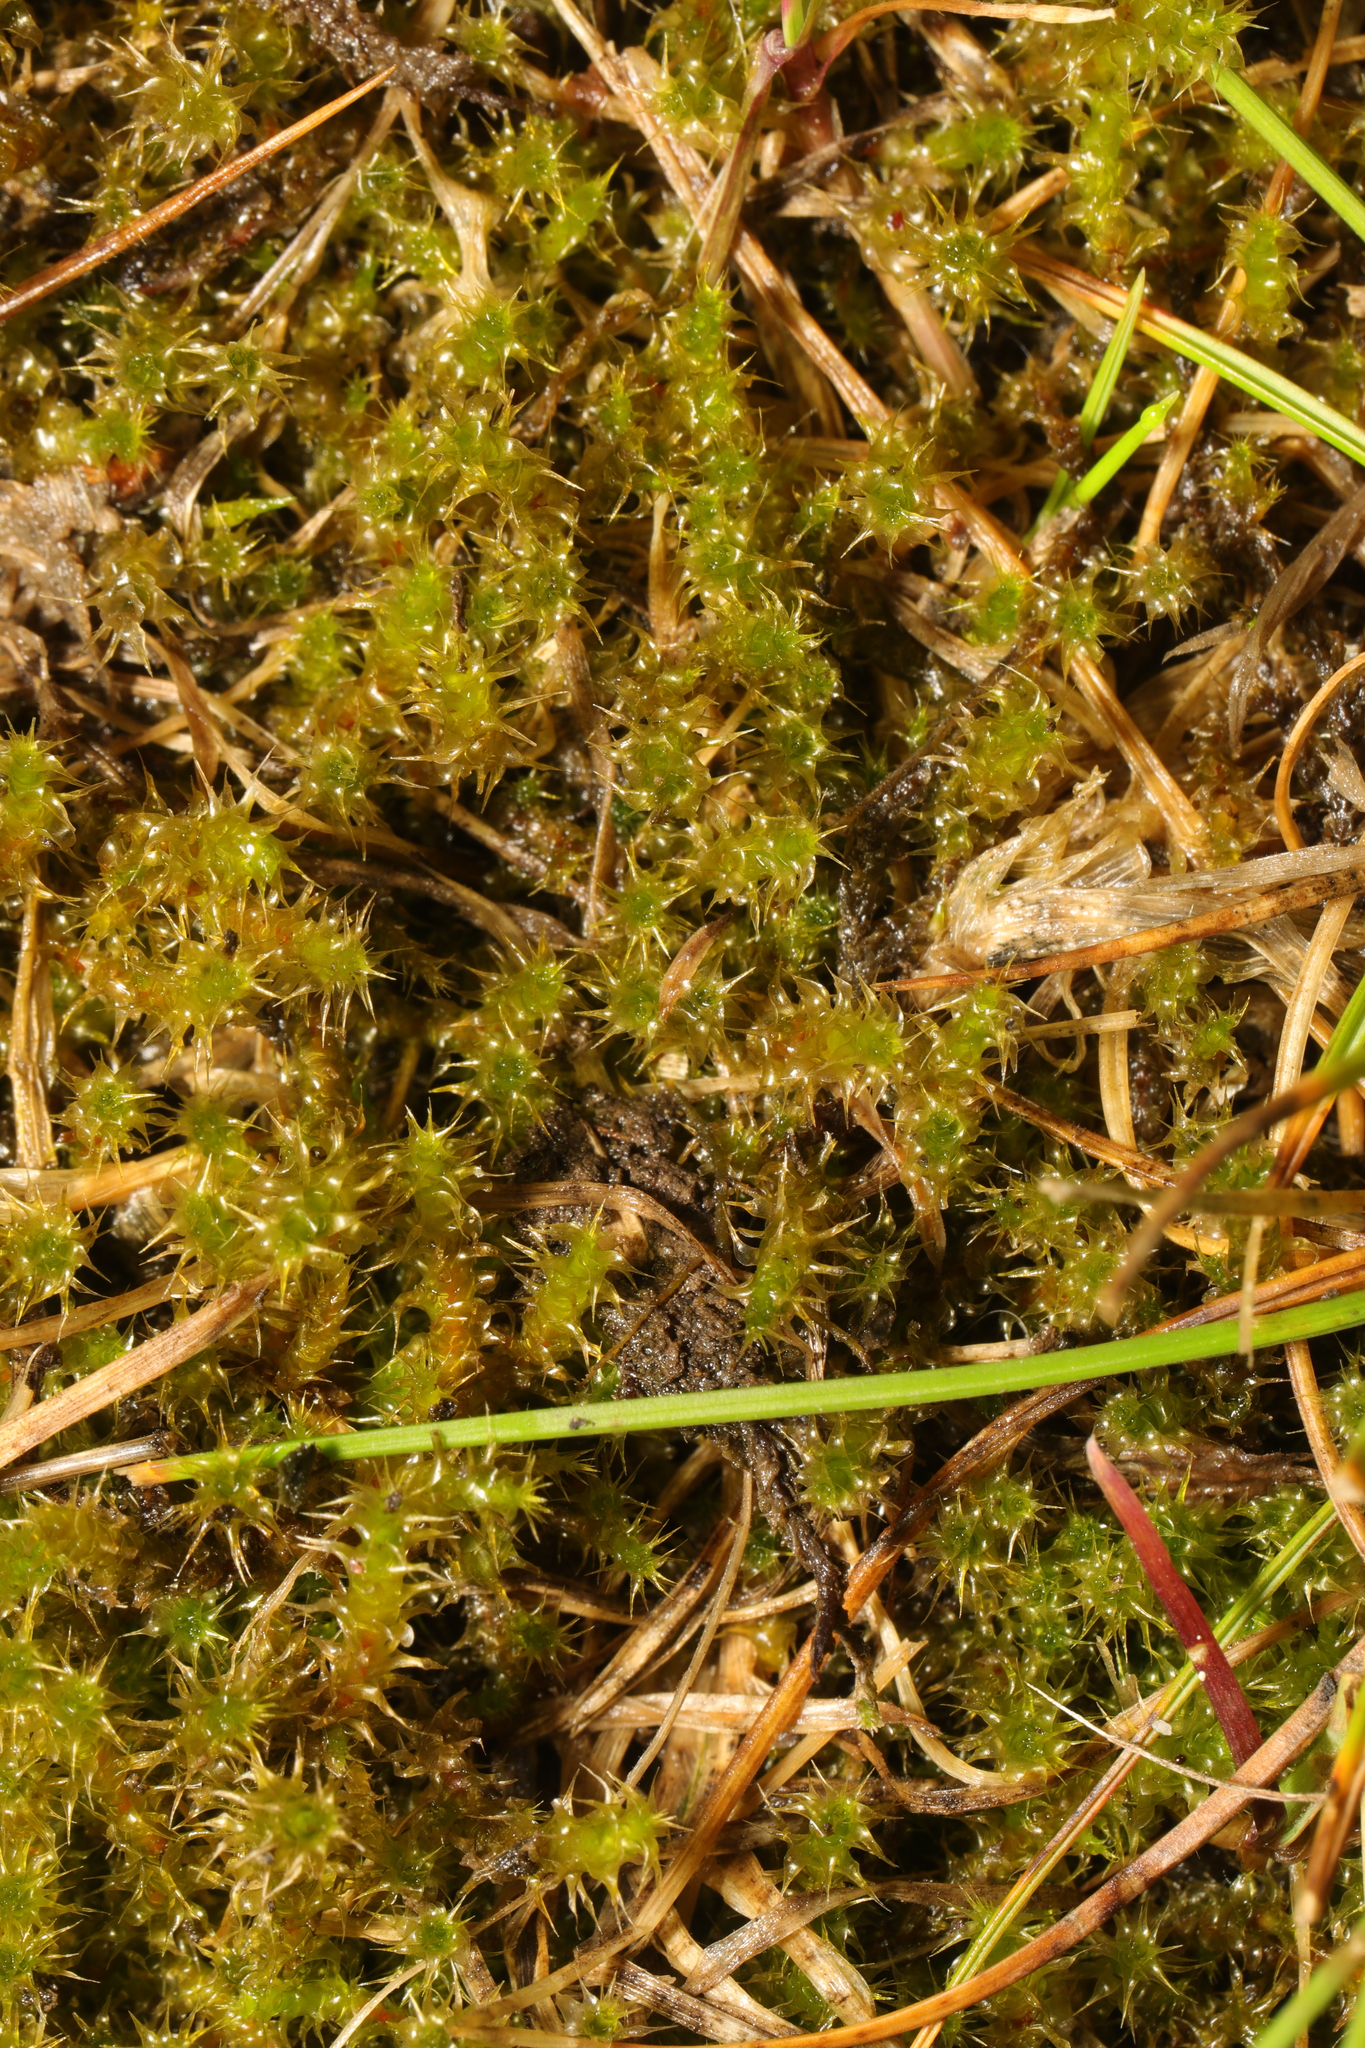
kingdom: Plantae
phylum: Bryophyta
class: Bryopsida
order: Hypnales
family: Hylocomiaceae
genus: Rhytidiadelphus
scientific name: Rhytidiadelphus squarrosus
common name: Springy turf-moss
